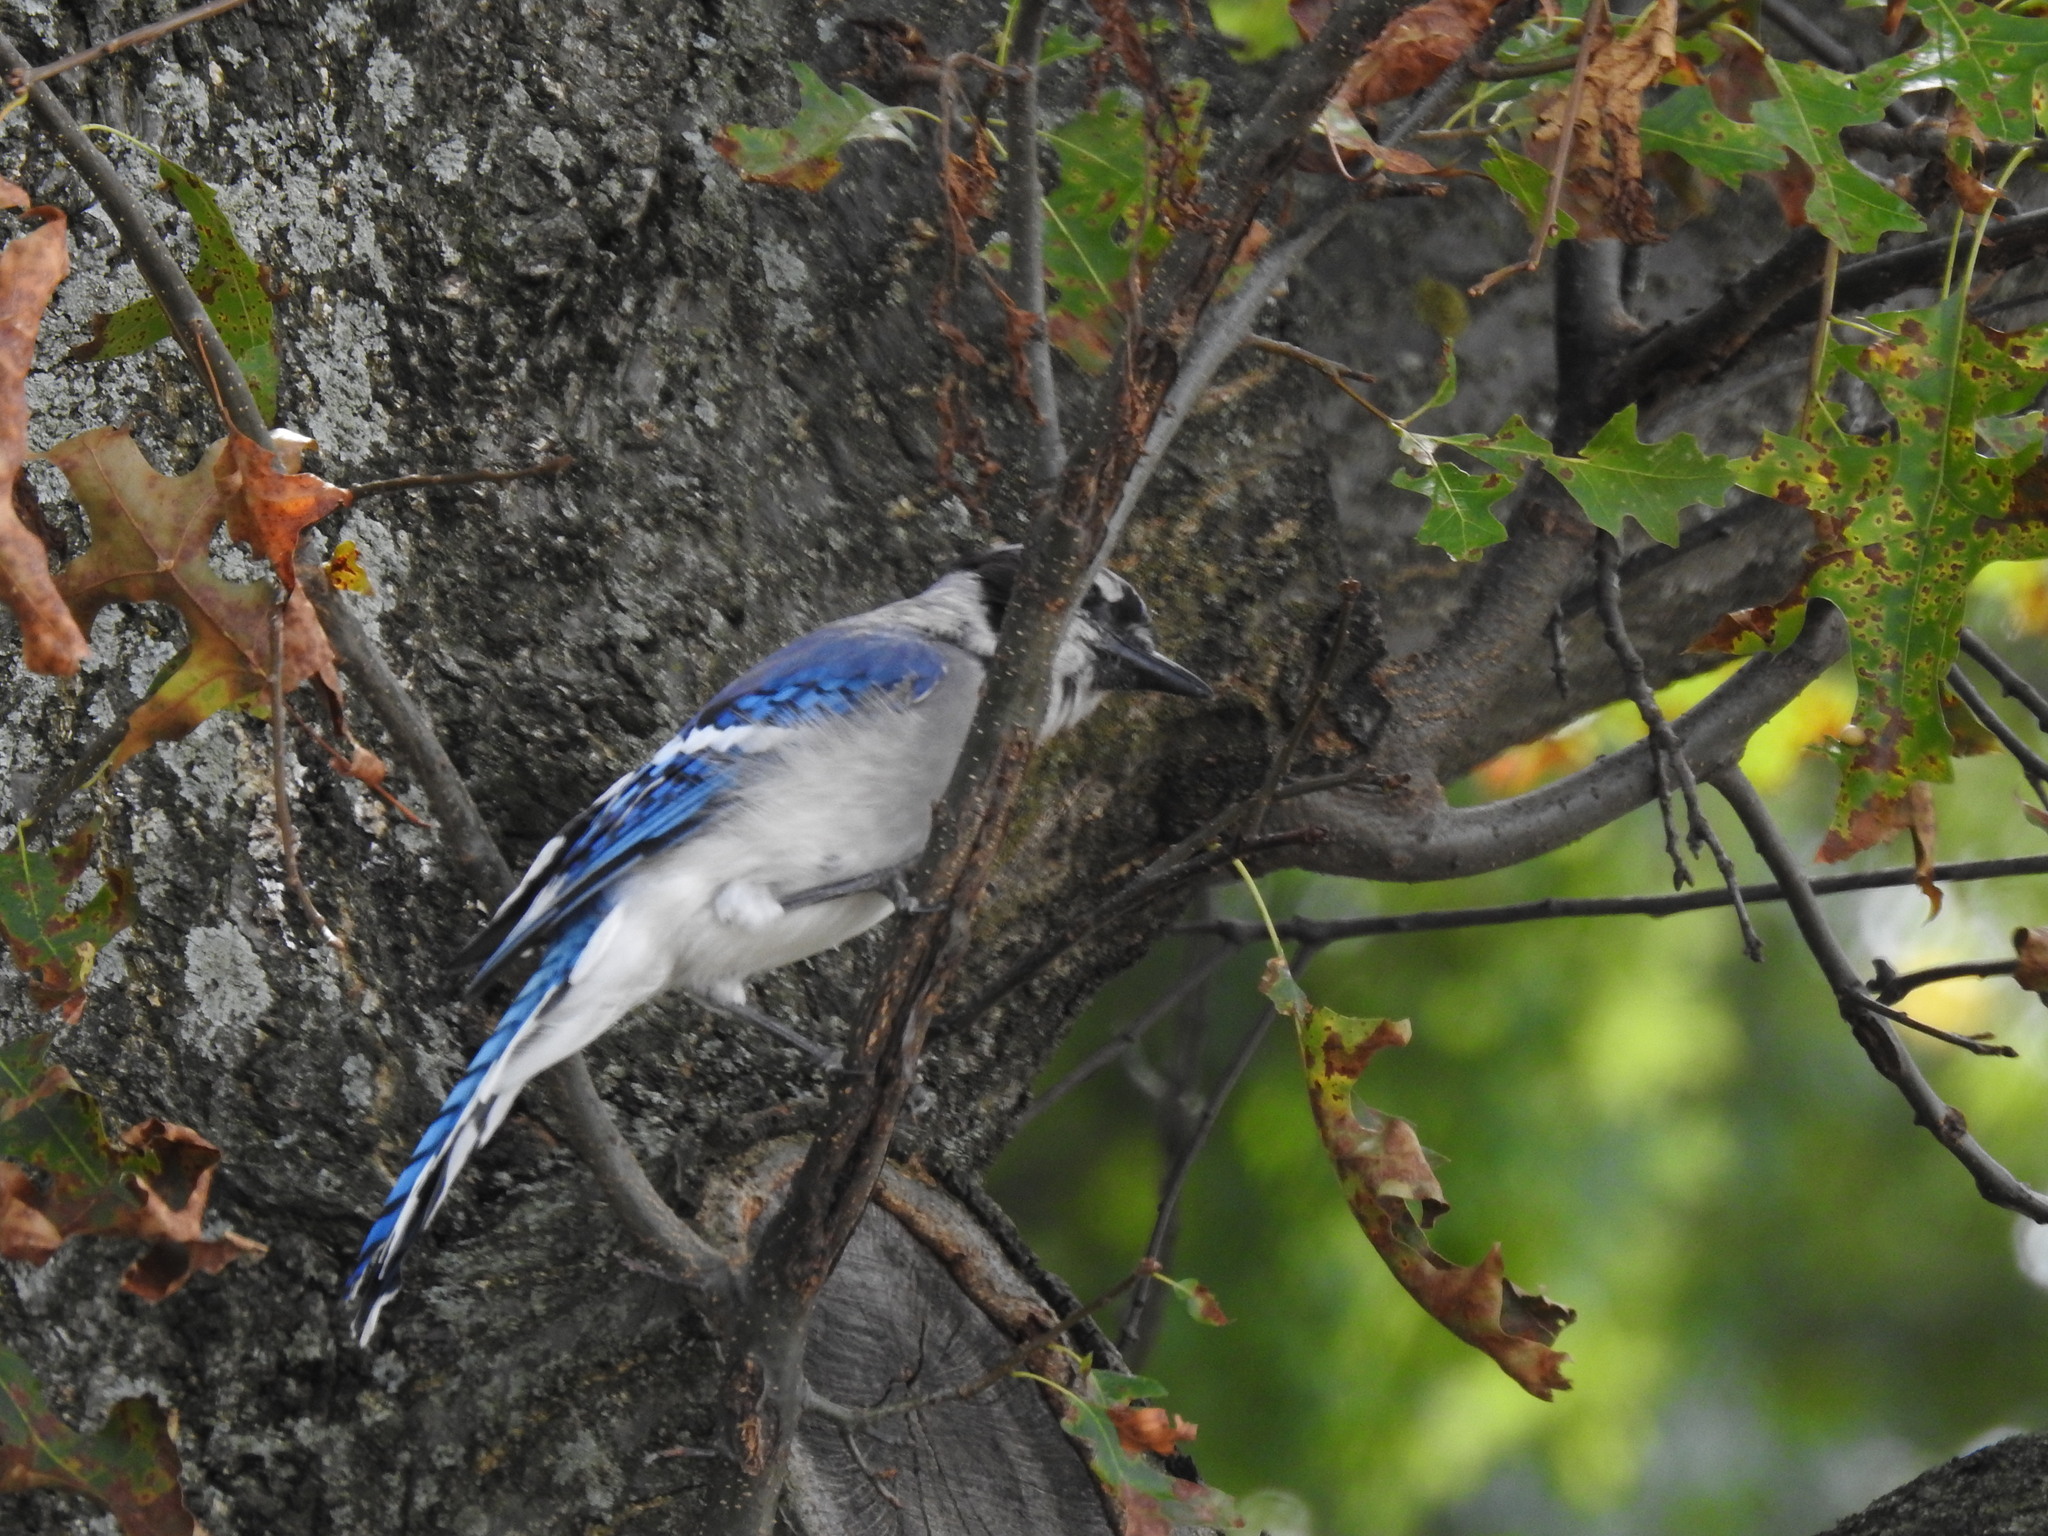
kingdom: Animalia
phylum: Chordata
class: Aves
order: Passeriformes
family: Corvidae
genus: Cyanocitta
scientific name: Cyanocitta cristata
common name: Blue jay
